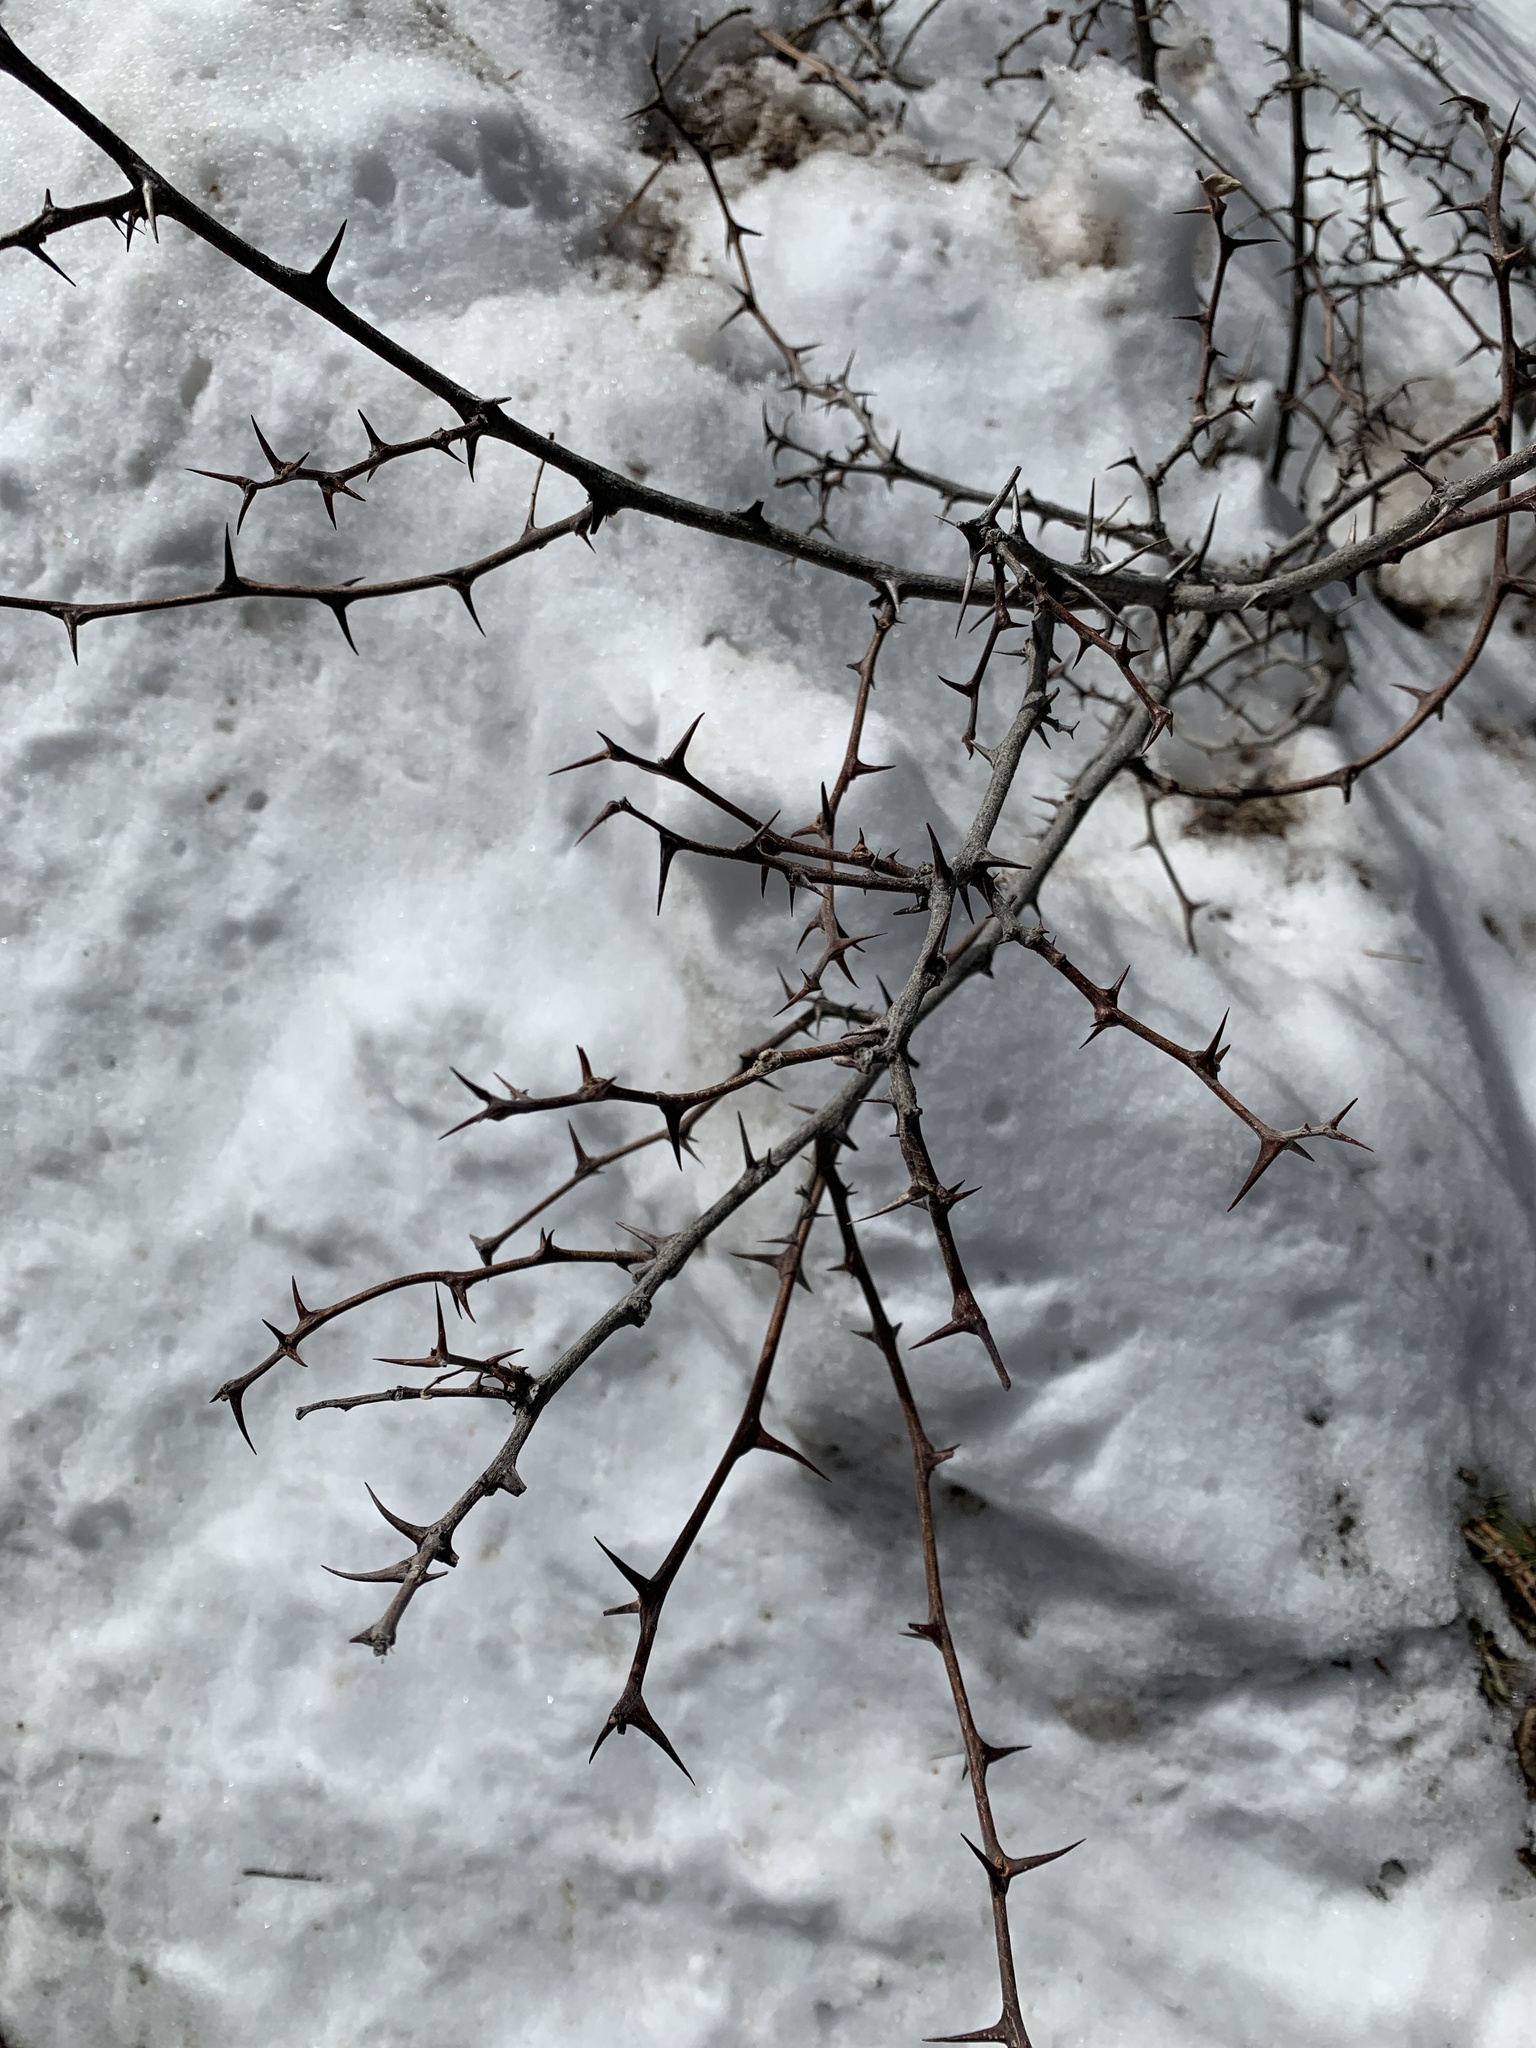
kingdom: Plantae
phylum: Tracheophyta
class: Magnoliopsida
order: Fabales
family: Fabaceae
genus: Robinia
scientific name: Robinia neomexicana
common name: New mexico locust
